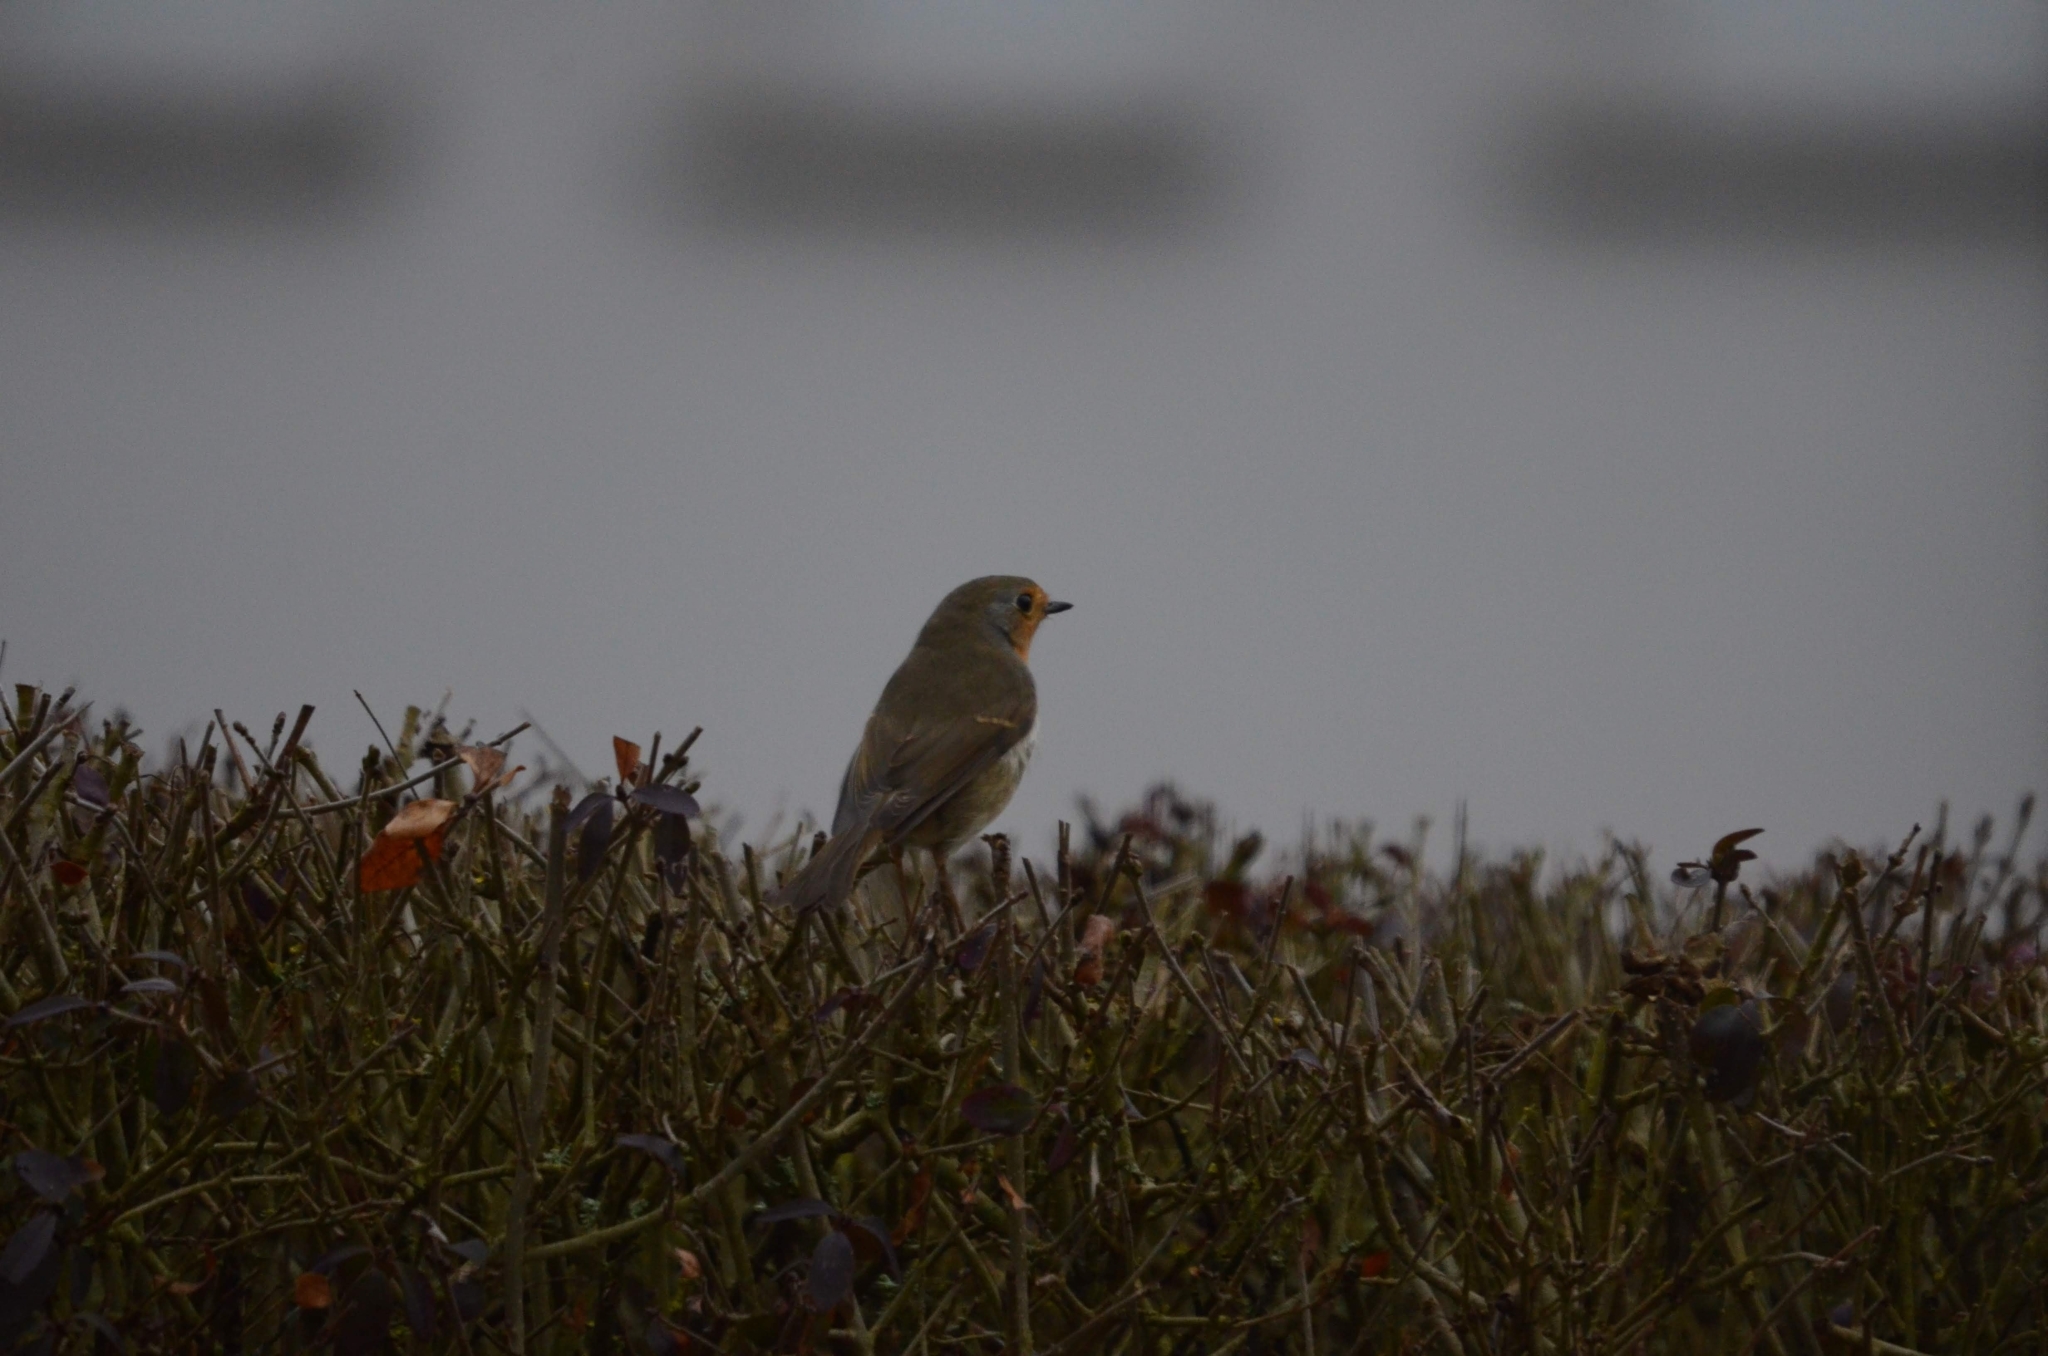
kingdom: Animalia
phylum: Chordata
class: Aves
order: Passeriformes
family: Muscicapidae
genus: Erithacus
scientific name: Erithacus rubecula
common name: European robin
